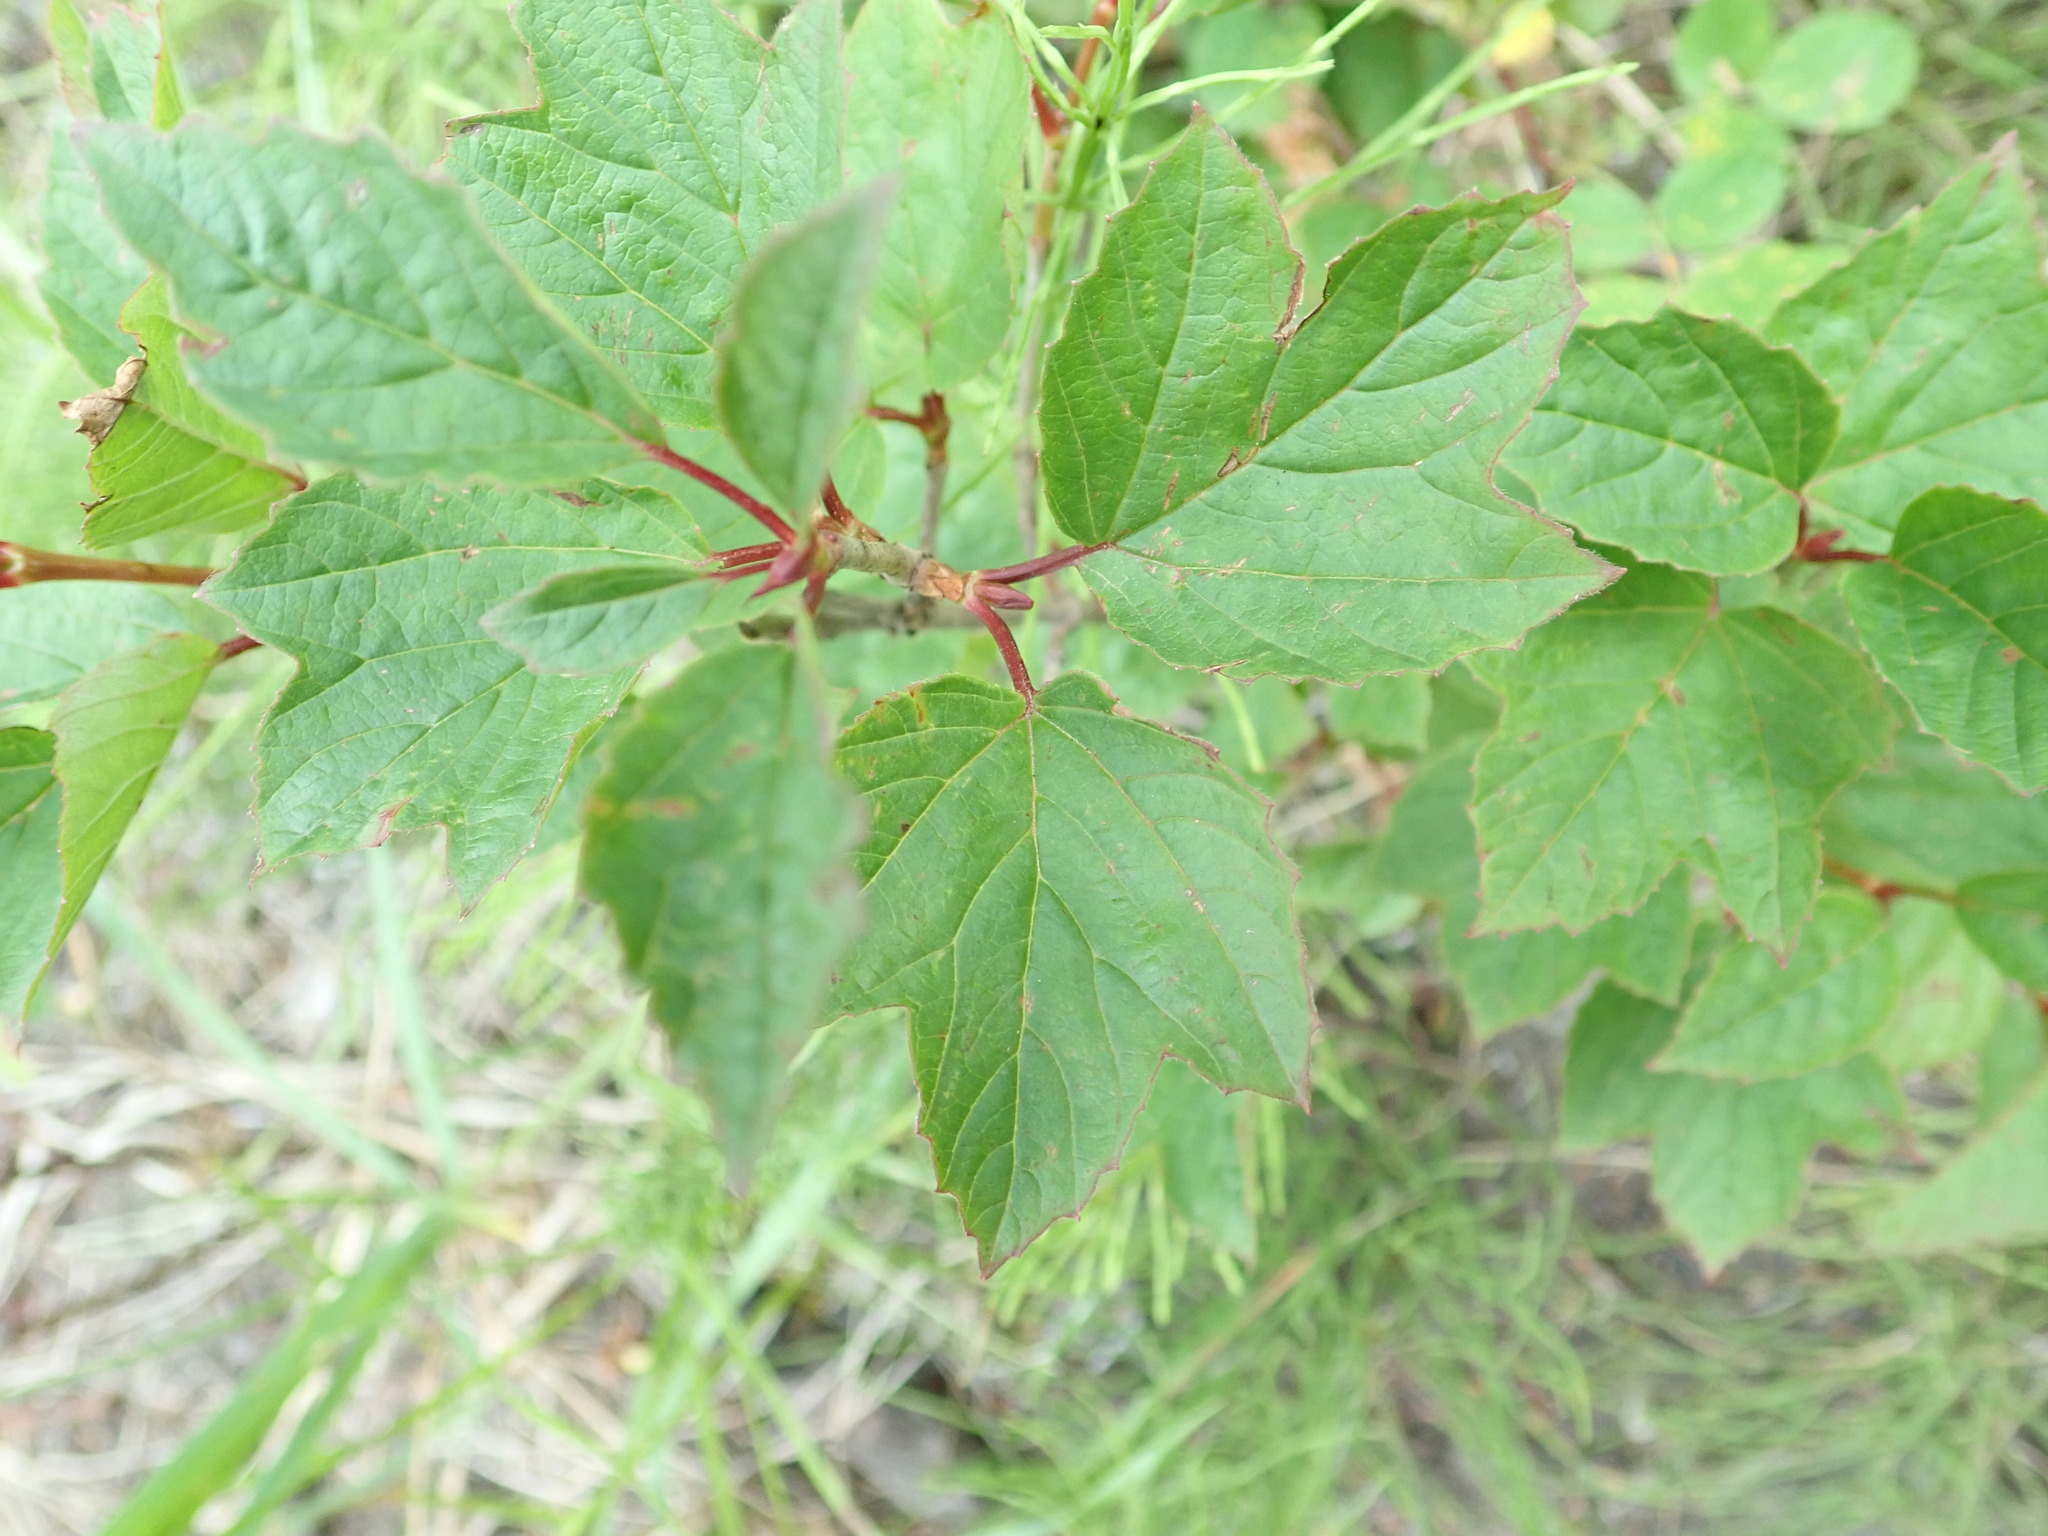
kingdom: Plantae
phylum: Tracheophyta
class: Magnoliopsida
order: Dipsacales
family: Viburnaceae
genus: Viburnum
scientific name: Viburnum edule
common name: Mooseberry
